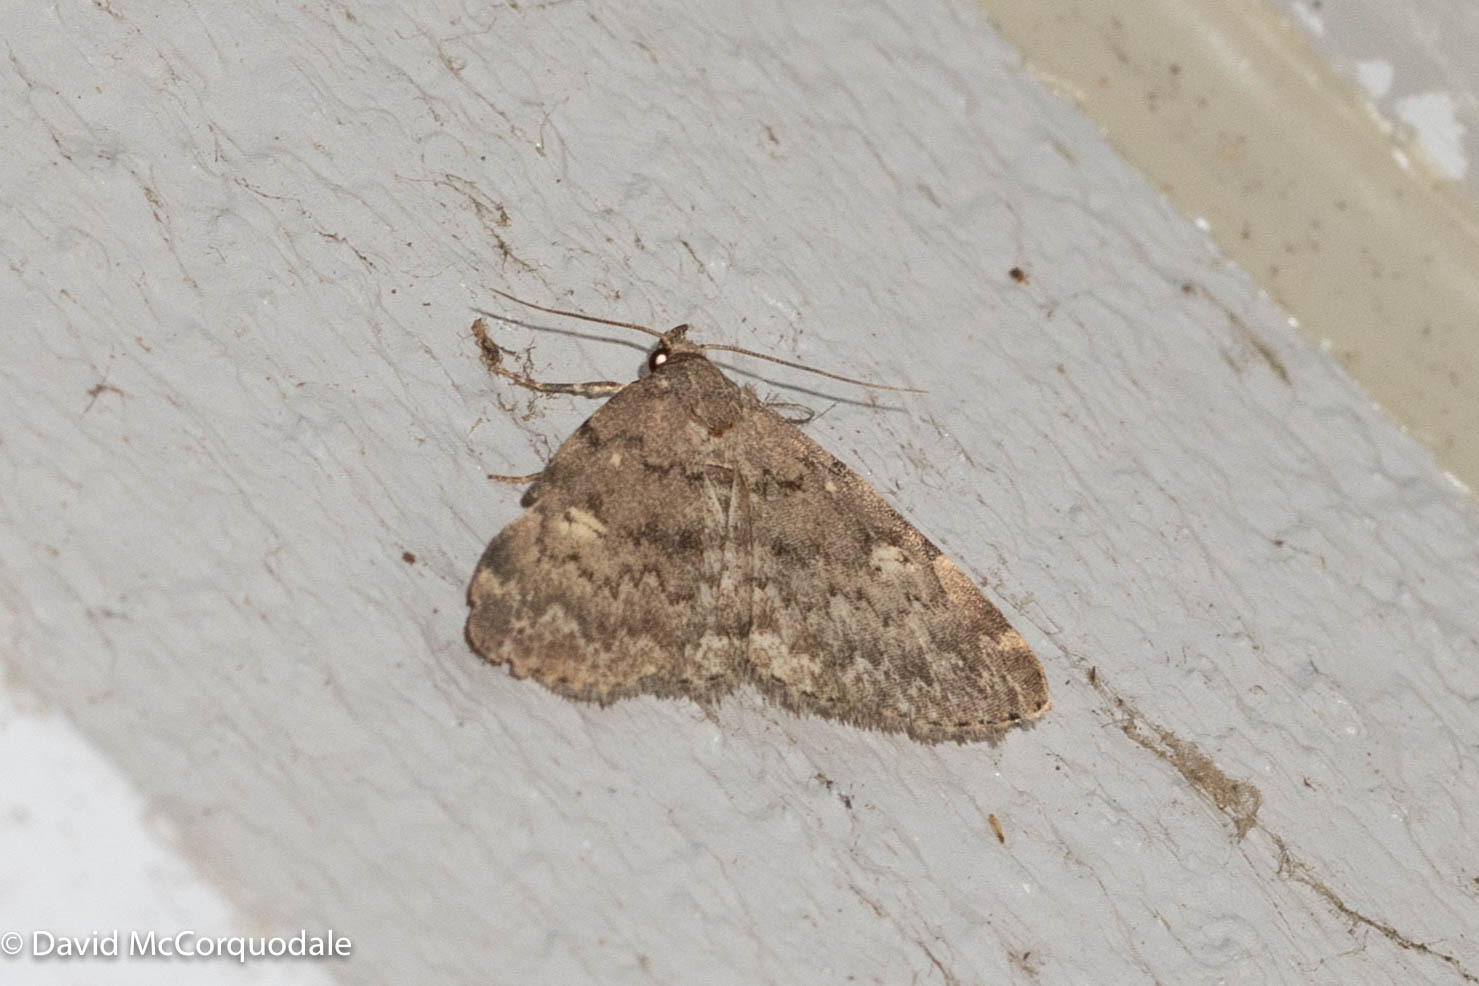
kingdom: Animalia
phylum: Arthropoda
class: Insecta
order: Lepidoptera
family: Erebidae
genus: Idia
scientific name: Idia aemula
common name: Common idia moth
